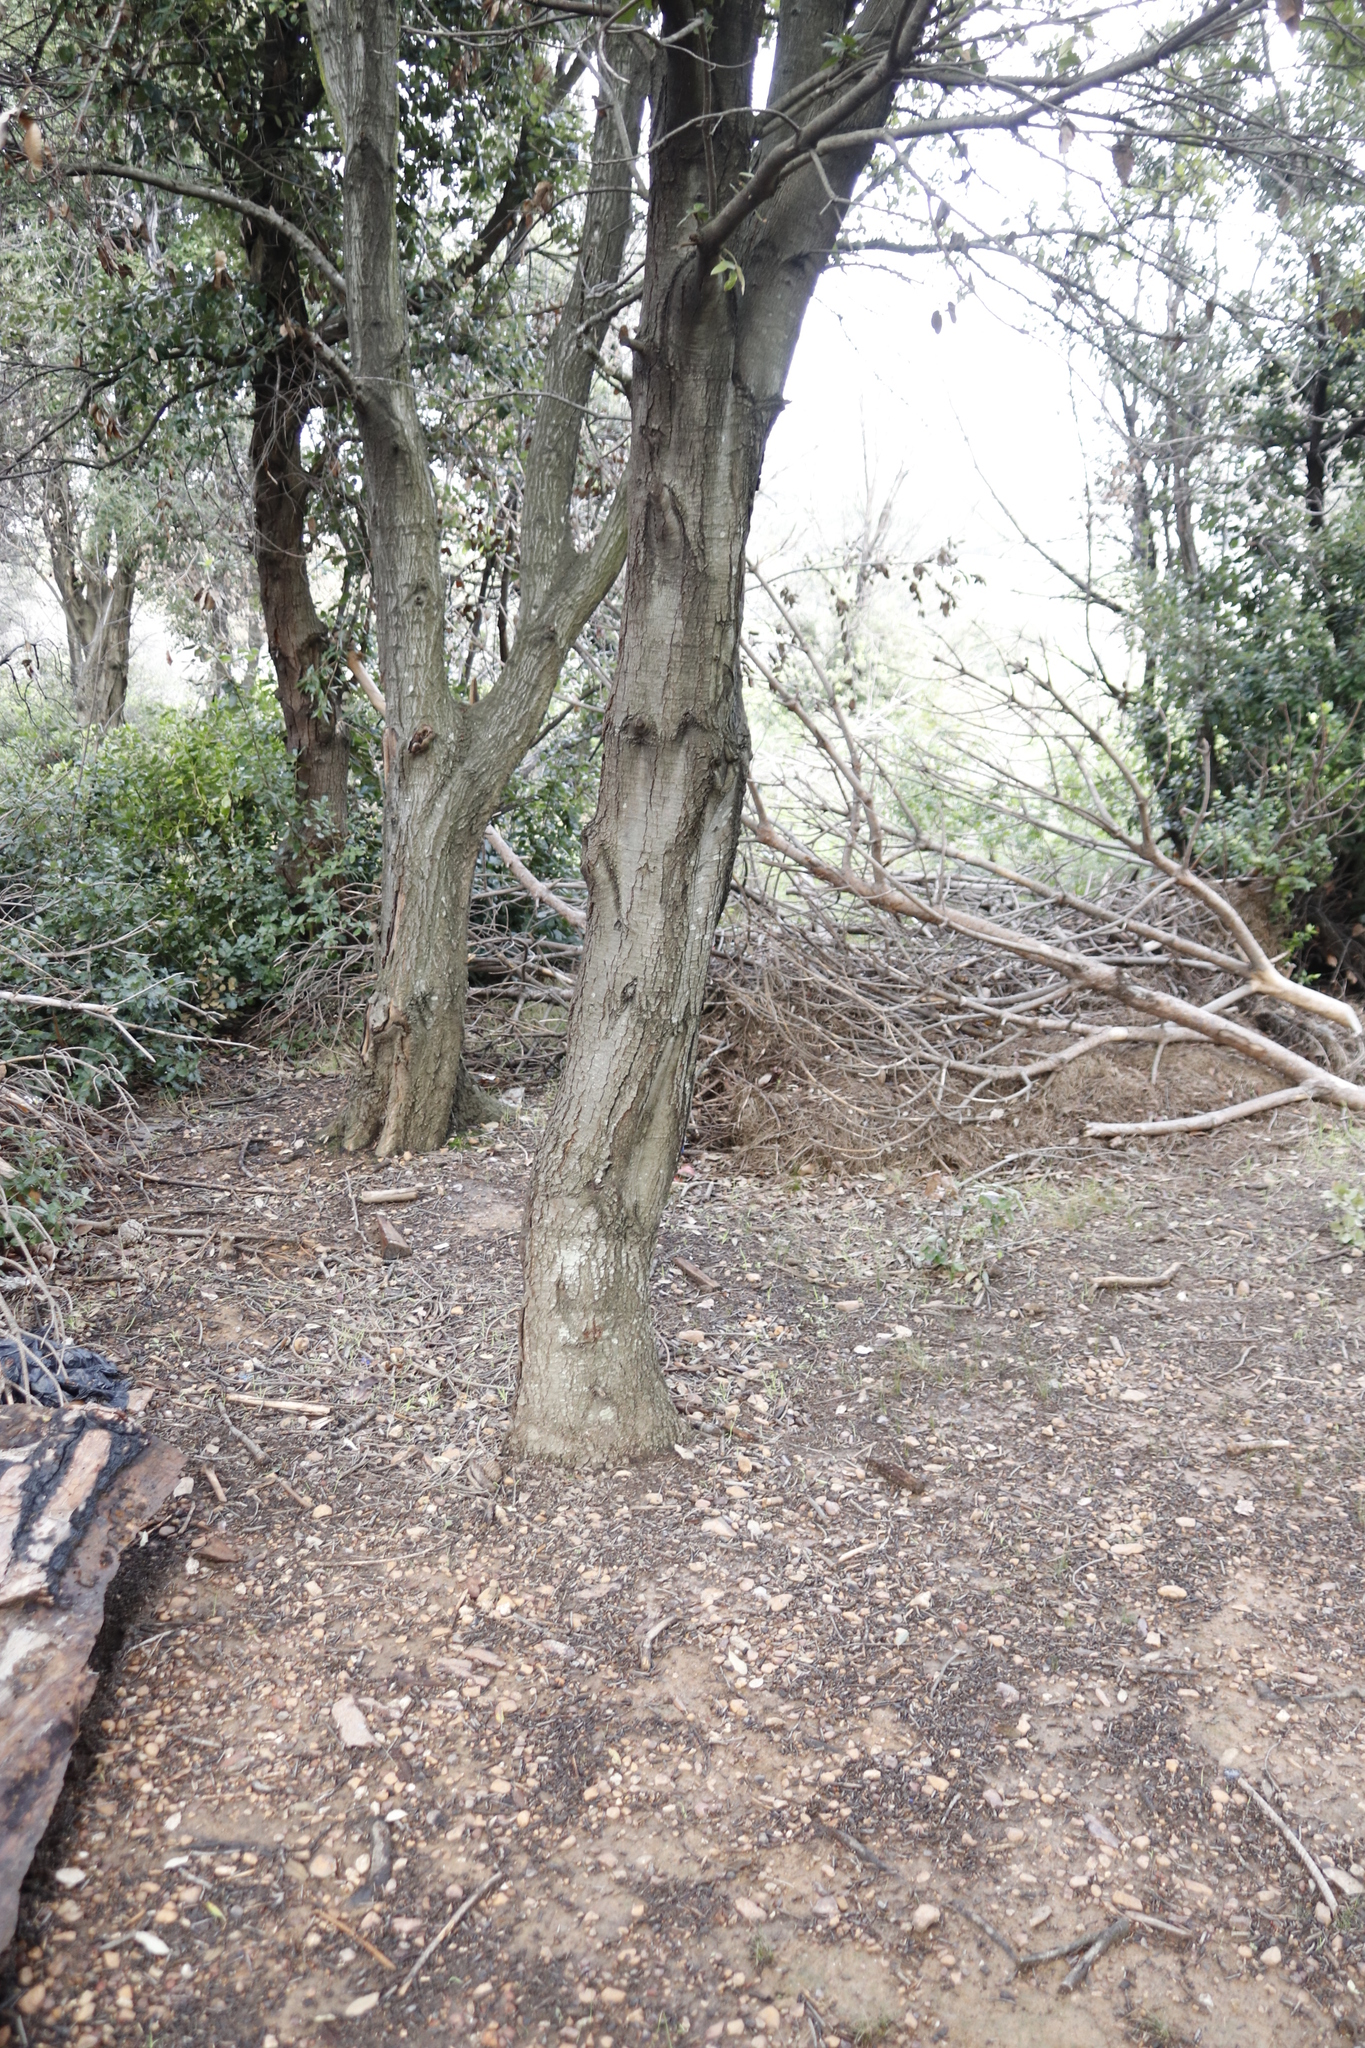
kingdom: Plantae
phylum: Tracheophyta
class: Magnoliopsida
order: Fagales
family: Fagaceae
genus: Quercus
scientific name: Quercus ilex
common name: Evergreen oak
